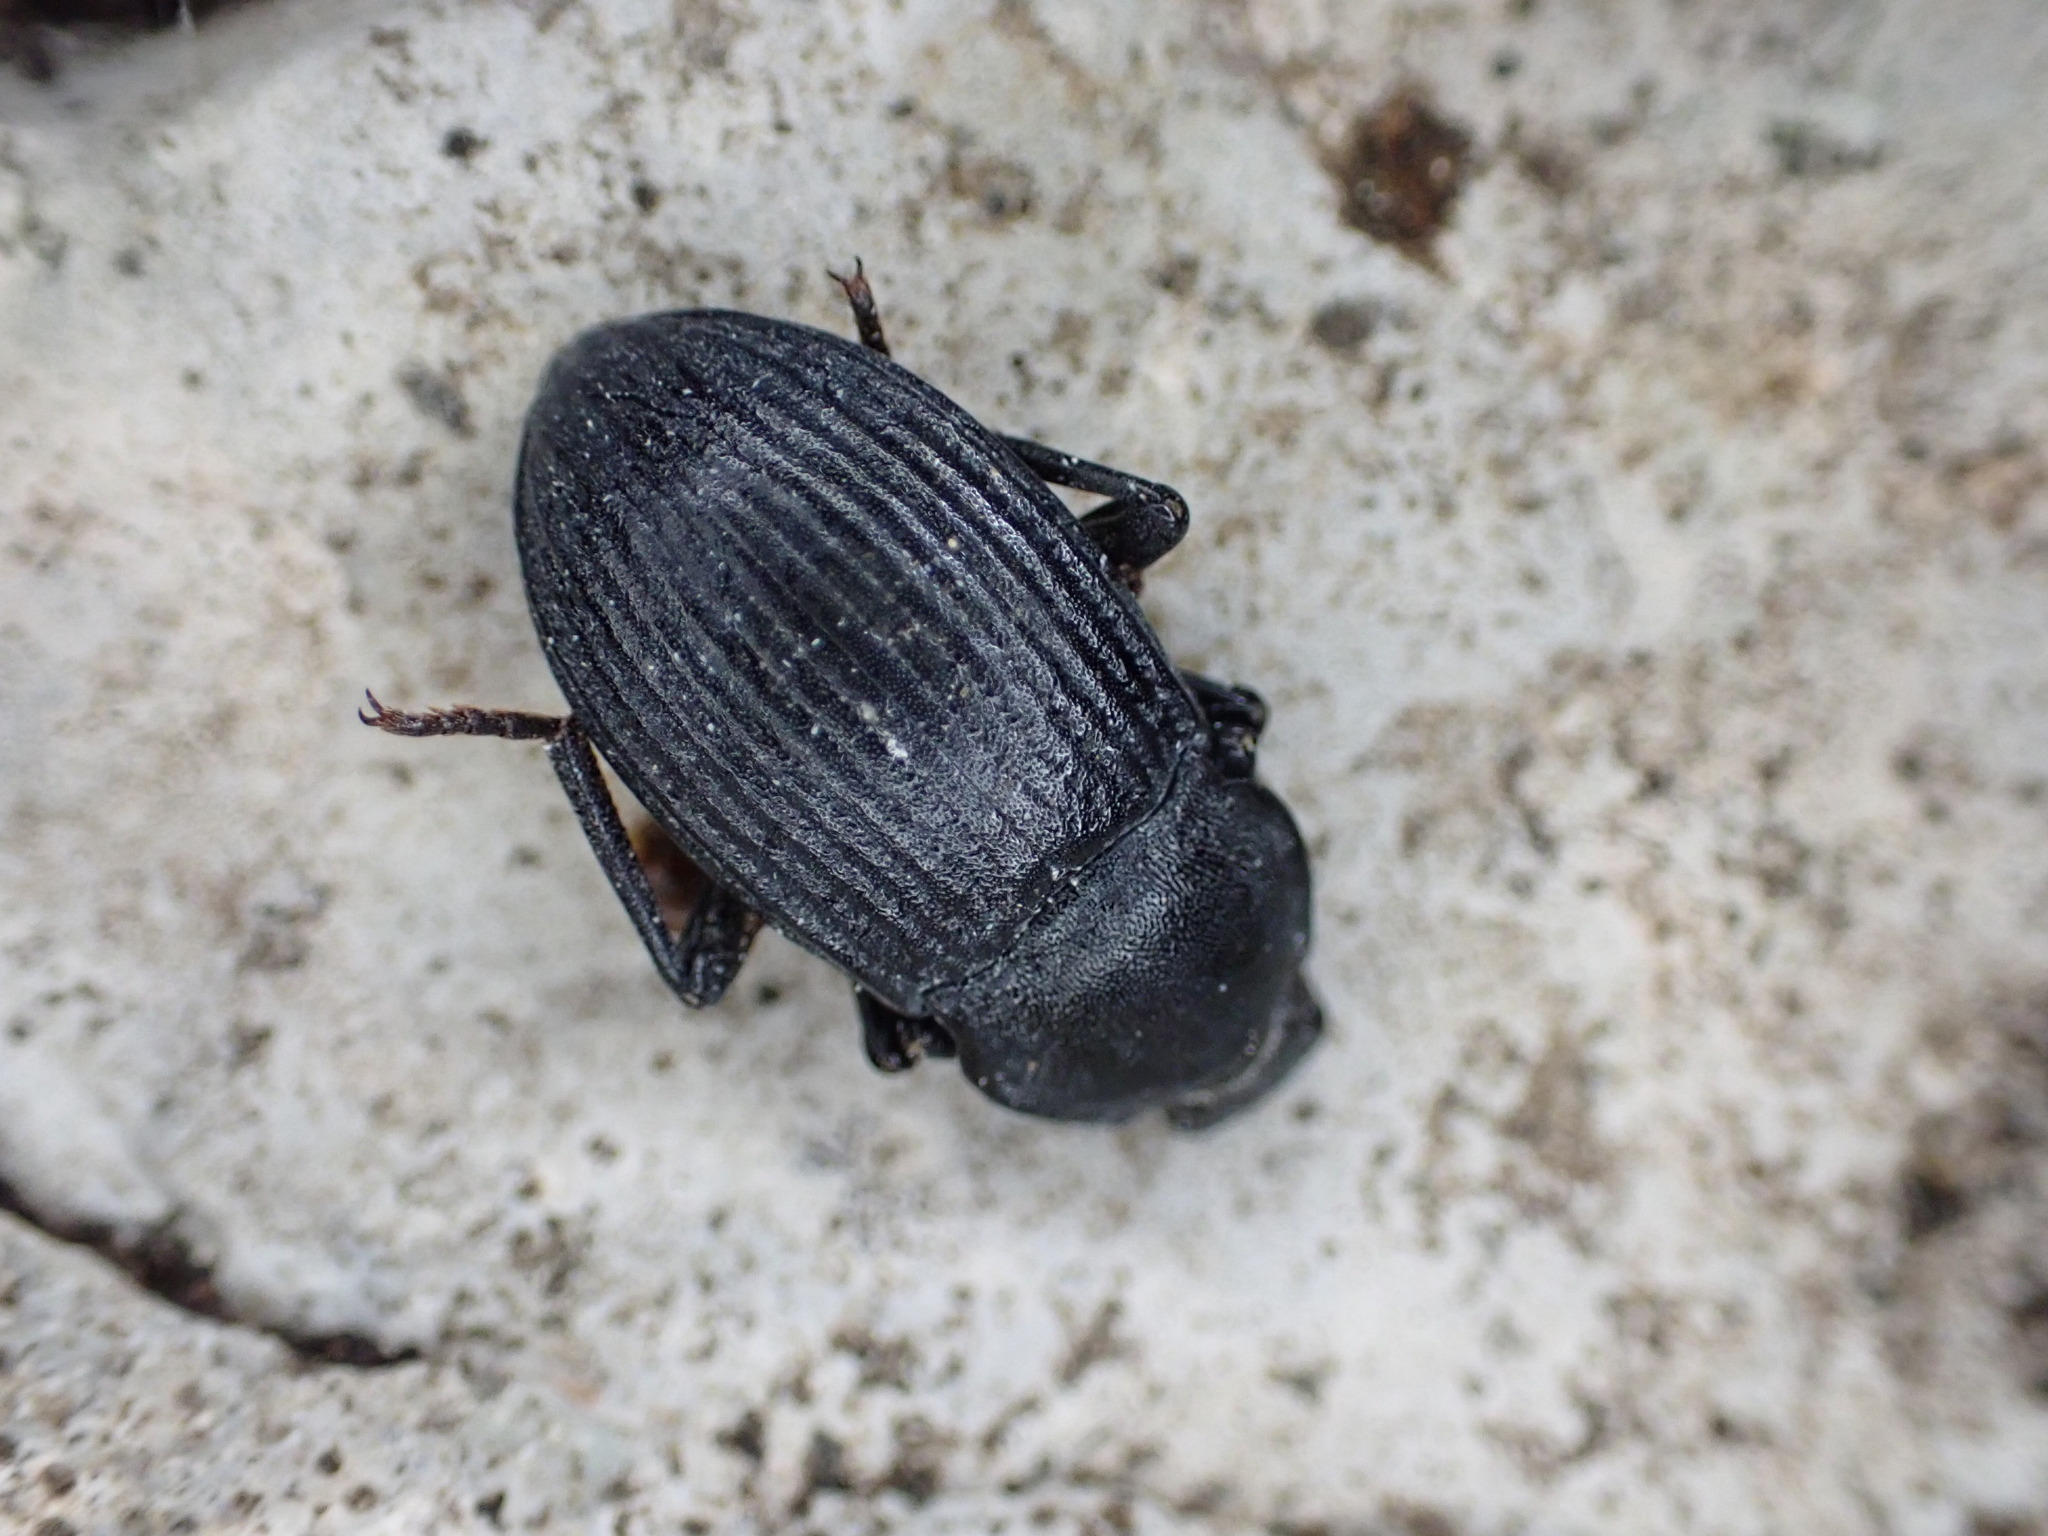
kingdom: Animalia
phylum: Arthropoda
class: Insecta
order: Coleoptera
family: Tenebrionidae
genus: Dendarus
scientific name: Dendarus coarcticollis
